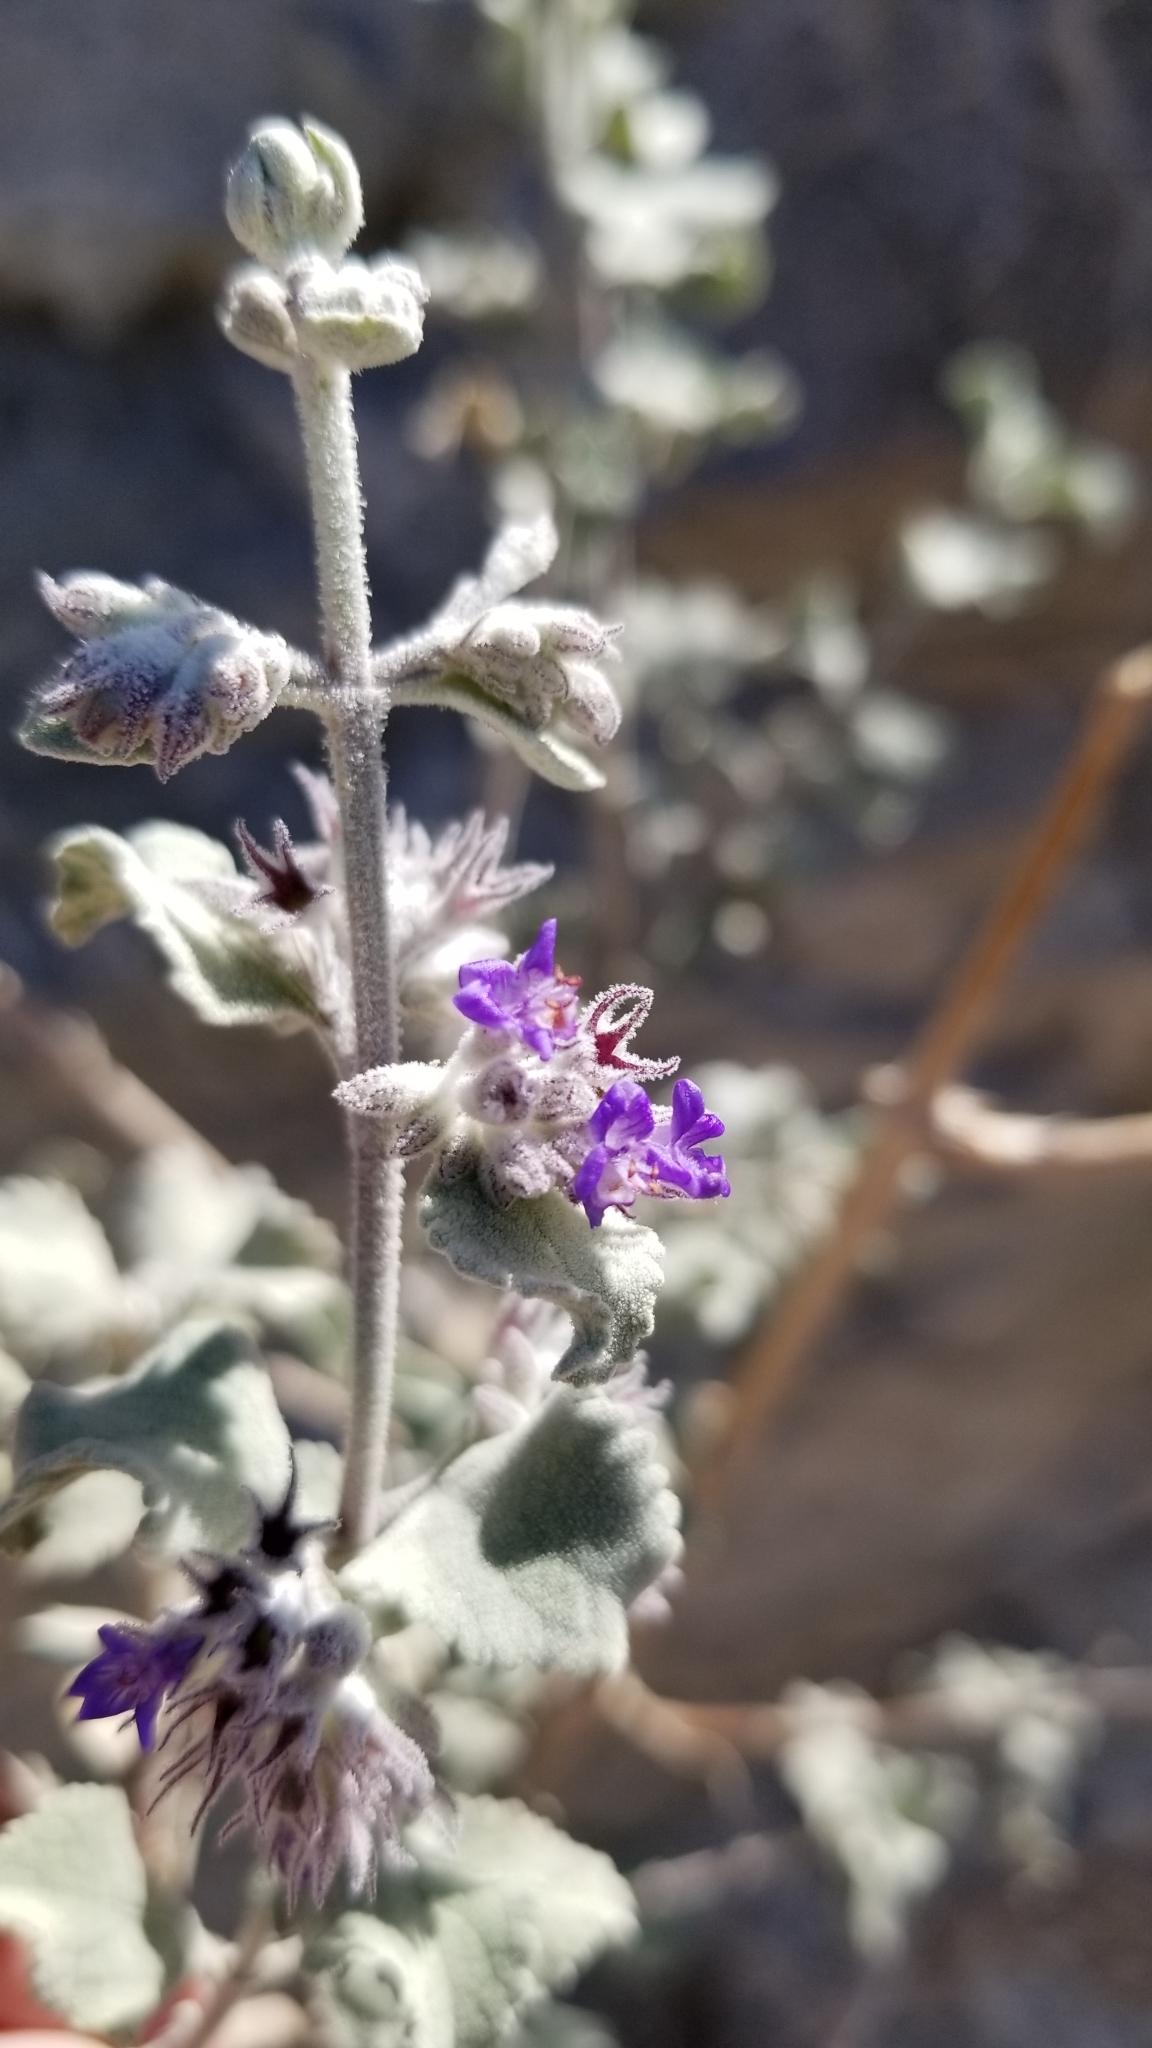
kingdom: Plantae
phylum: Tracheophyta
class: Magnoliopsida
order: Lamiales
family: Lamiaceae
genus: Condea
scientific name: Condea emoryi
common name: Chia
